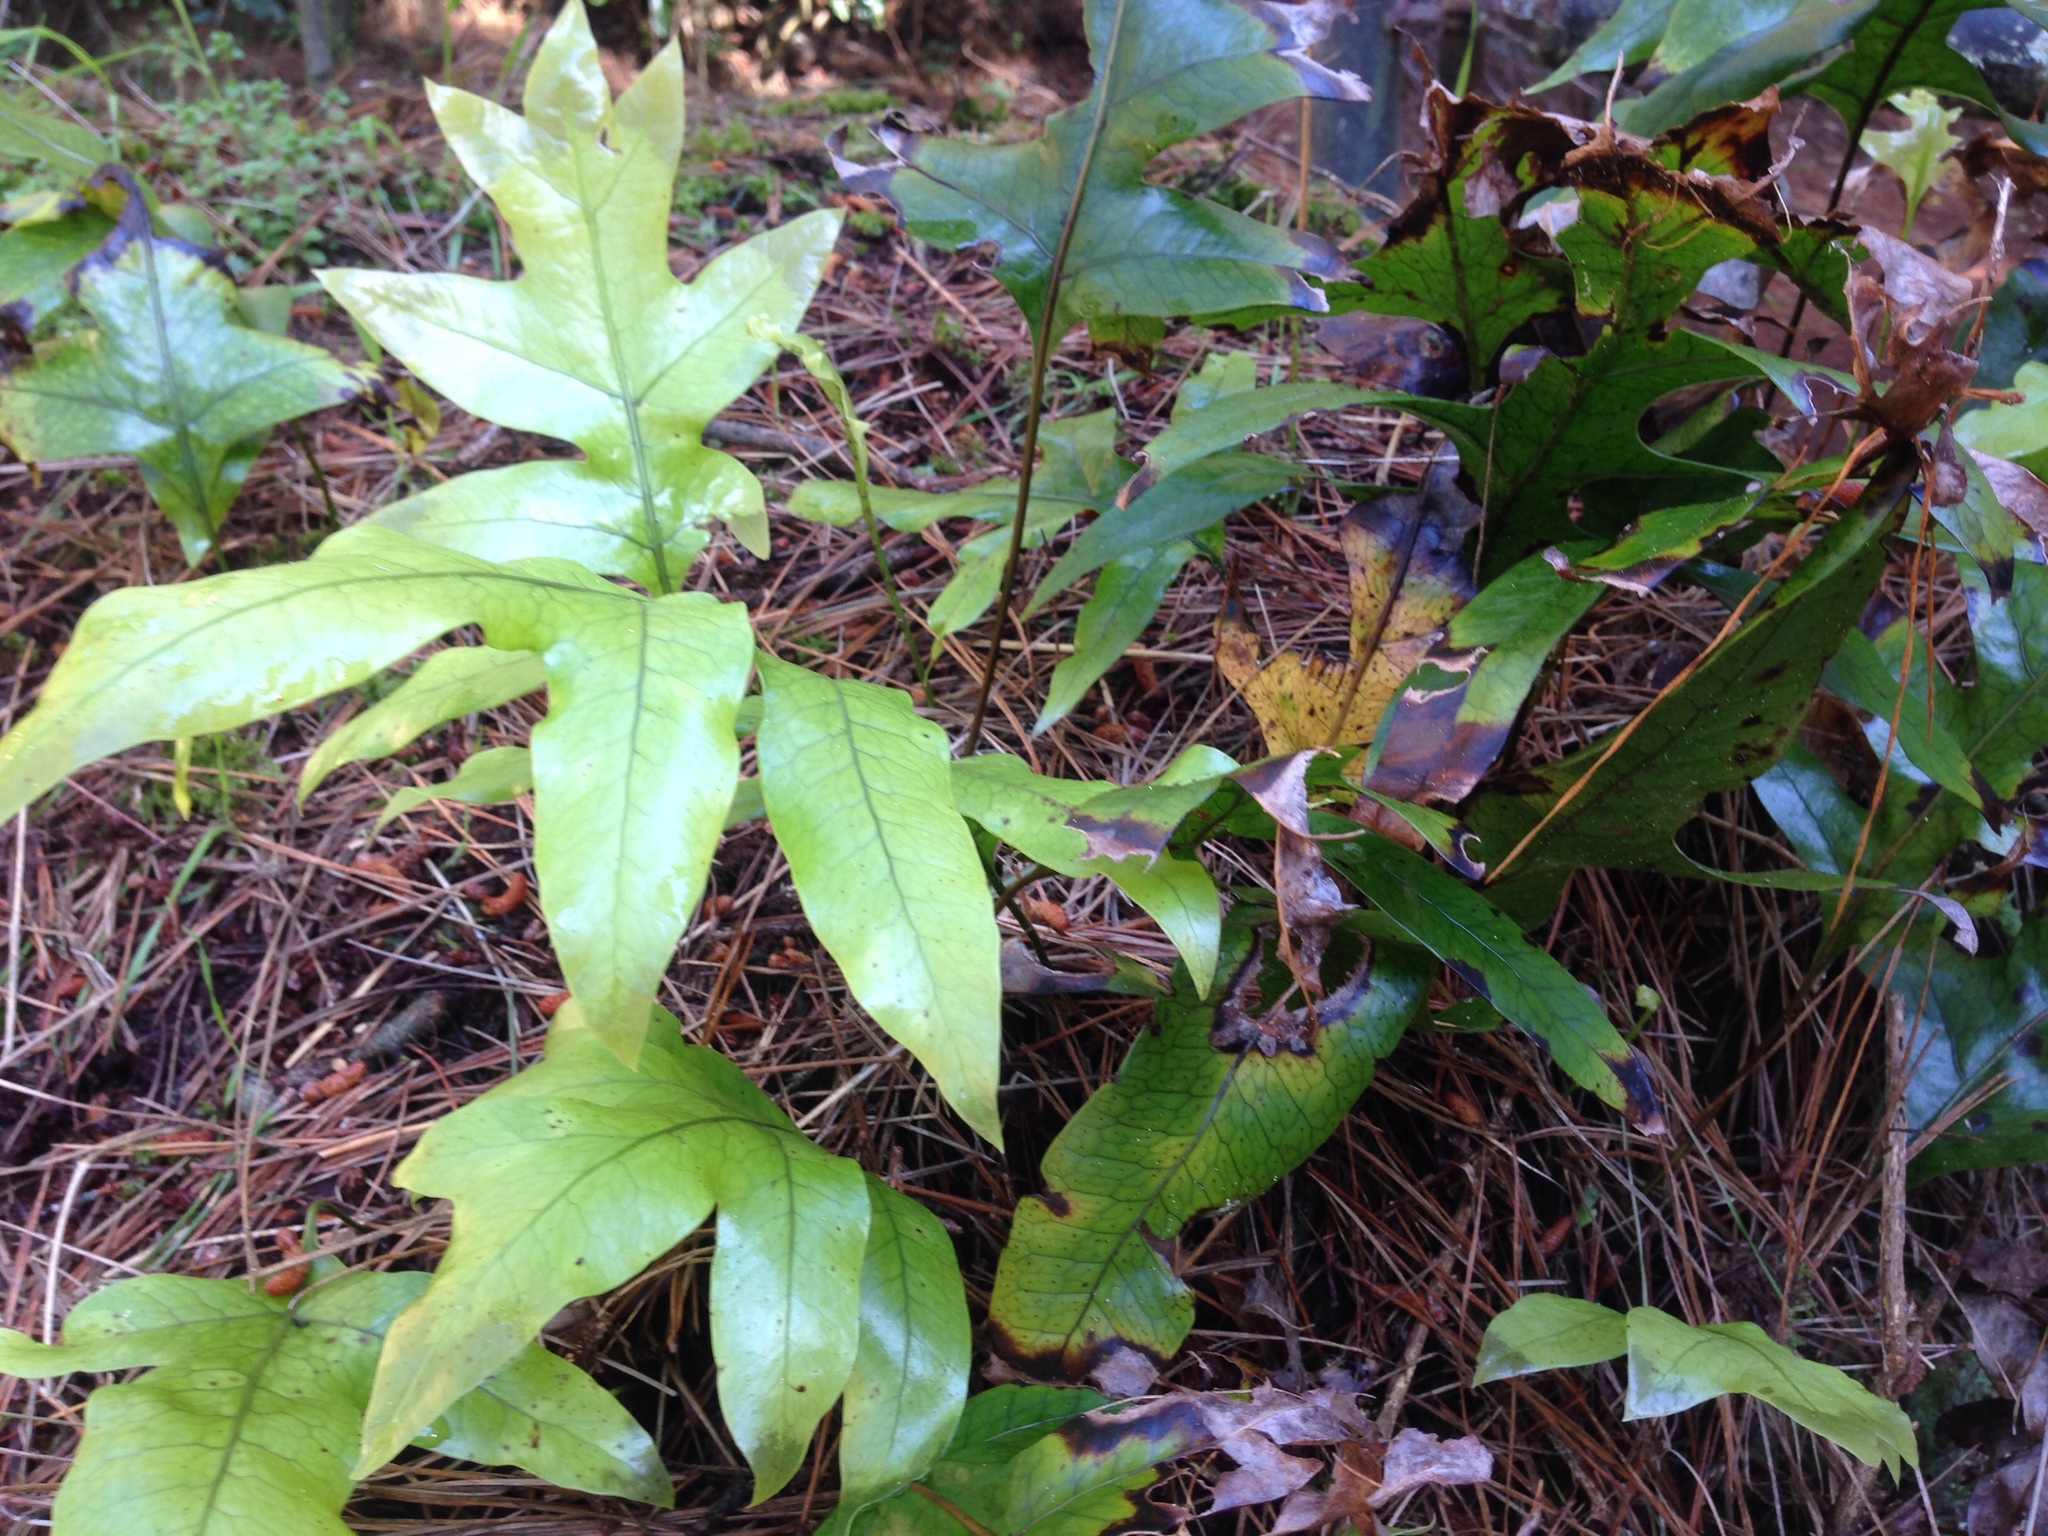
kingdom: Plantae
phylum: Tracheophyta
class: Polypodiopsida
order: Polypodiales
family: Polypodiaceae
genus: Lecanopteris
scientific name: Lecanopteris pustulata
